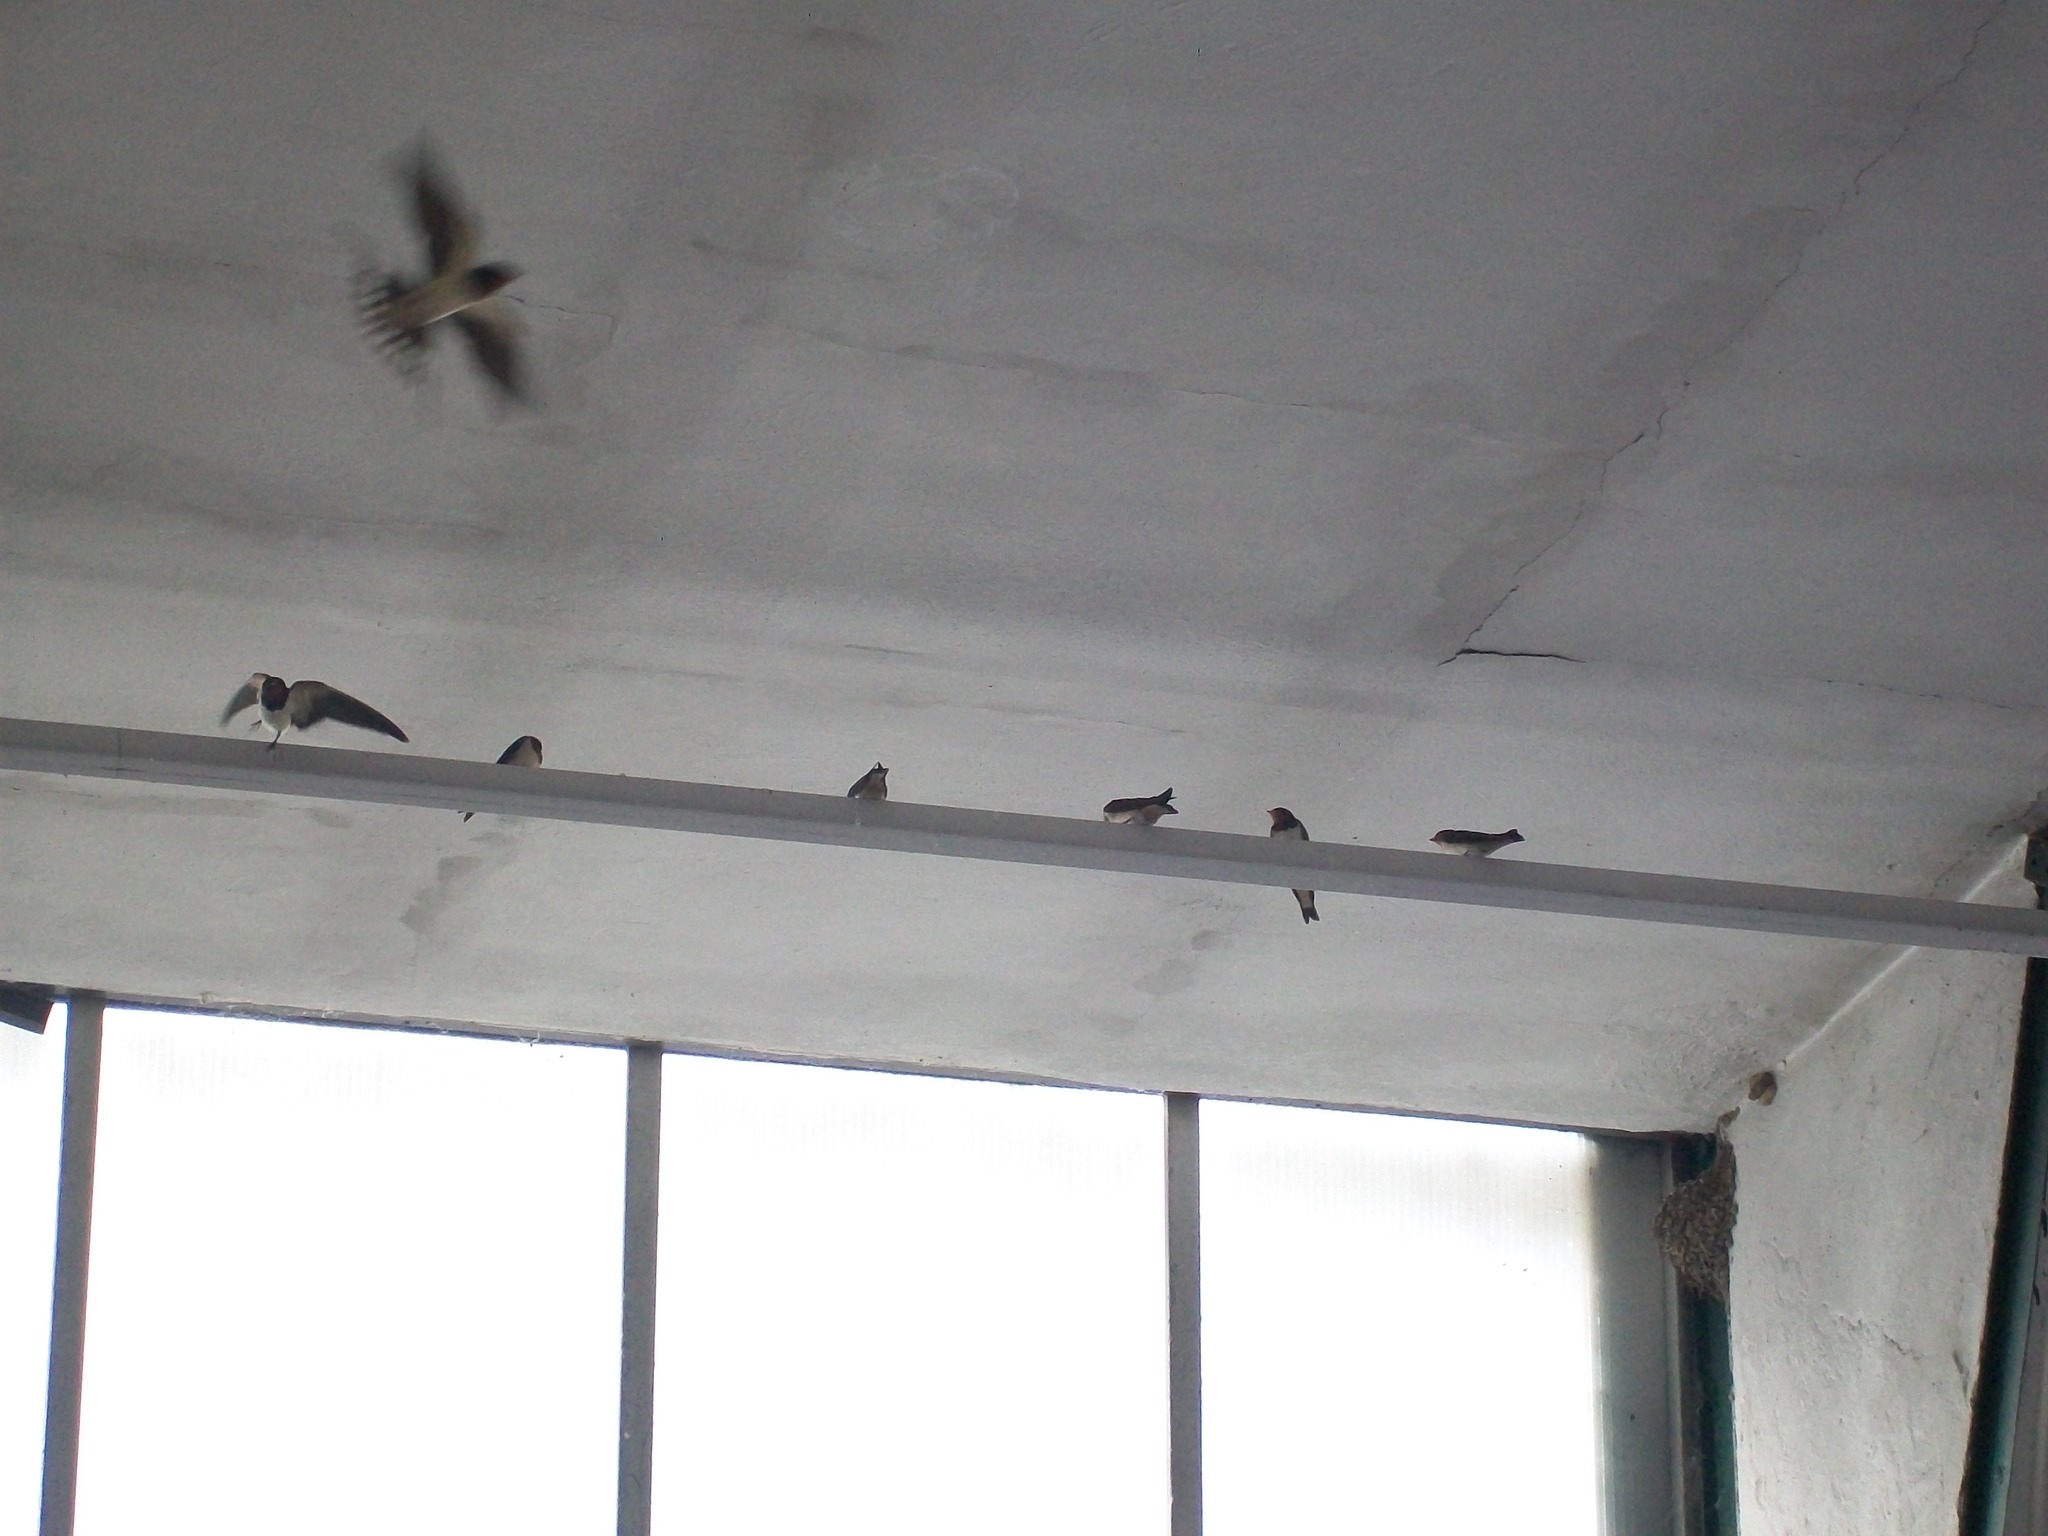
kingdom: Animalia
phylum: Chordata
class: Aves
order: Passeriformes
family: Hirundinidae
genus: Hirundo
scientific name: Hirundo rustica
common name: Barn swallow
